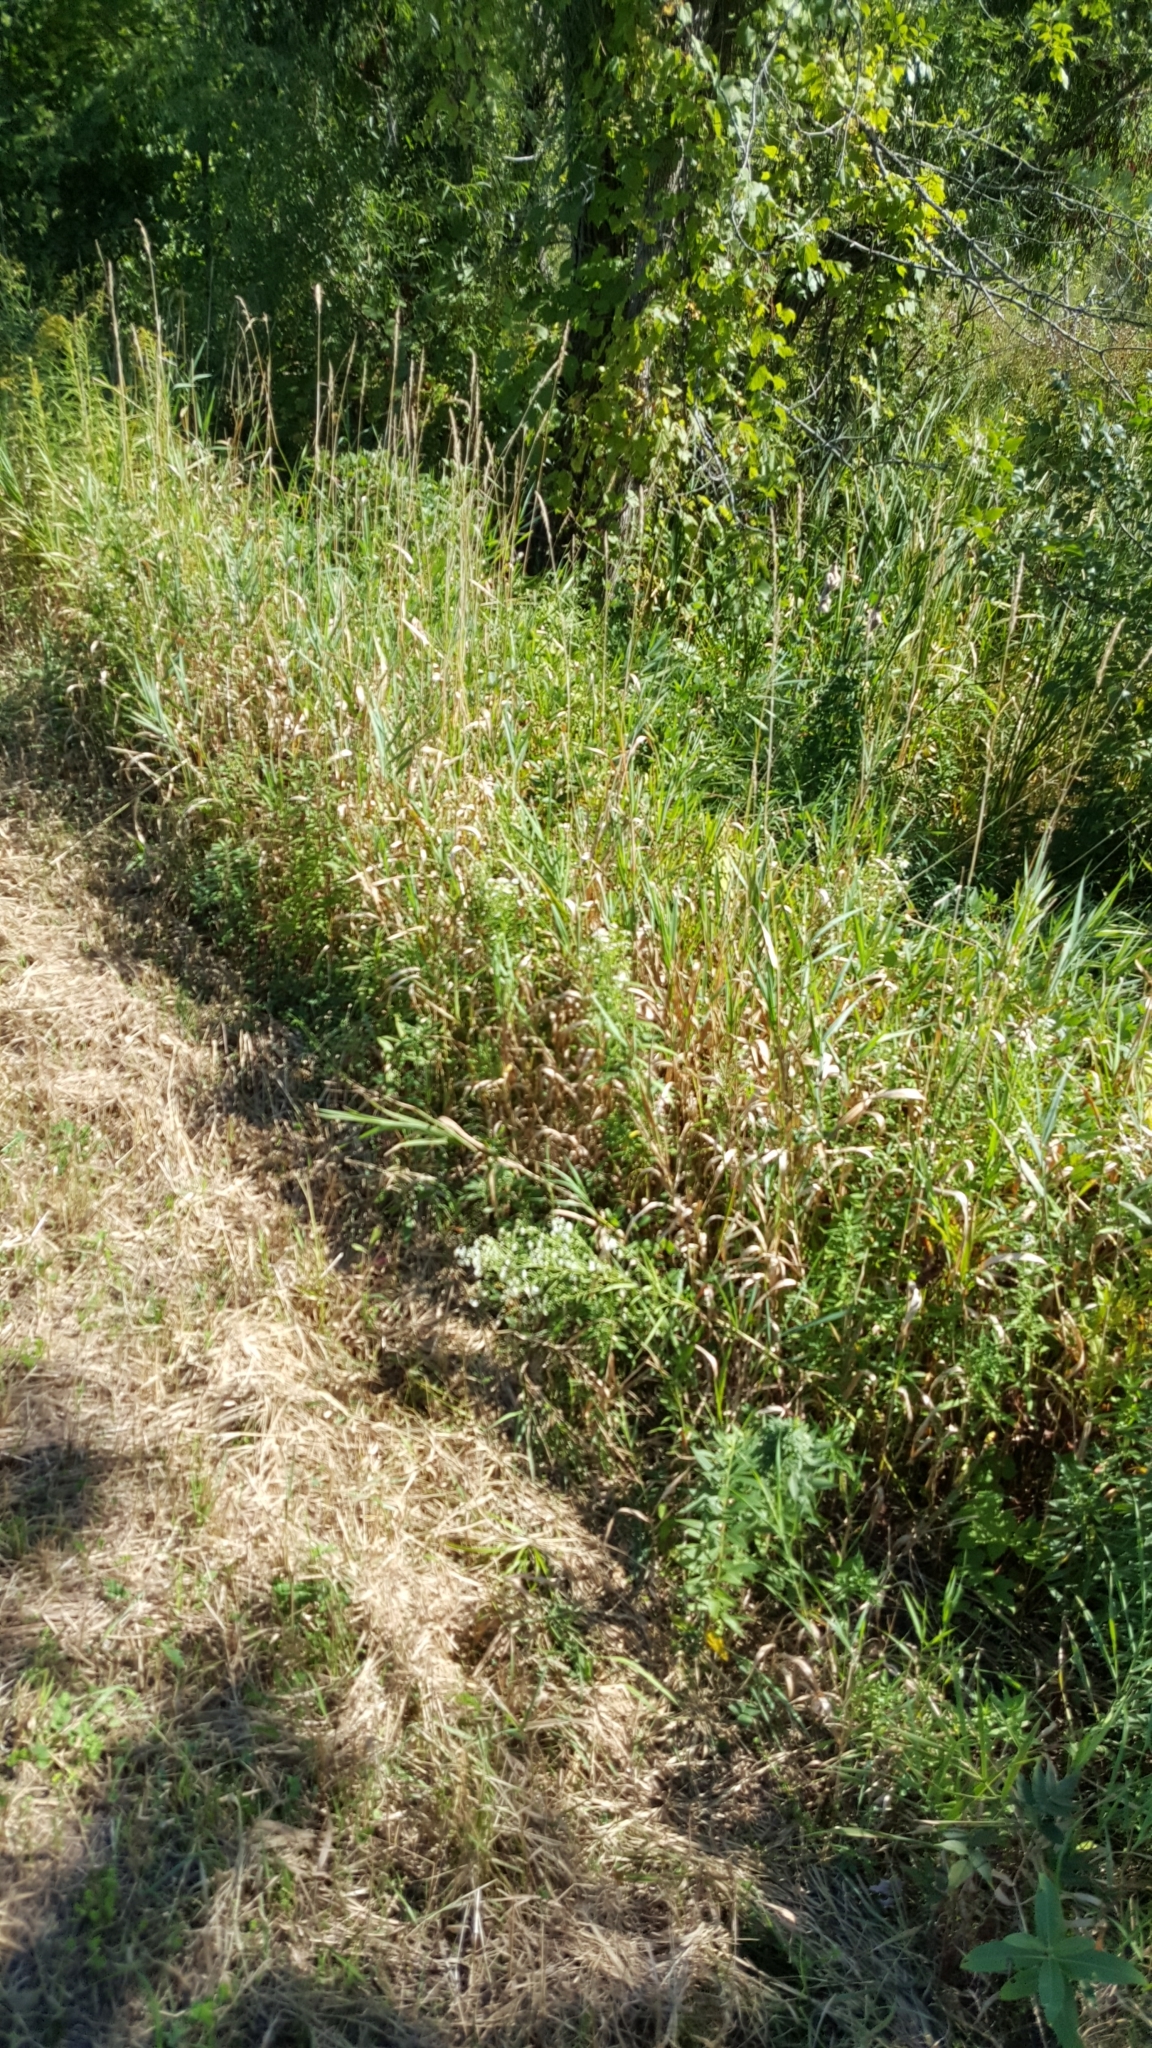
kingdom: Plantae
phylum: Tracheophyta
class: Liliopsida
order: Poales
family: Poaceae
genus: Phalaris
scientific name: Phalaris arundinacea
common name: Reed canary-grass
